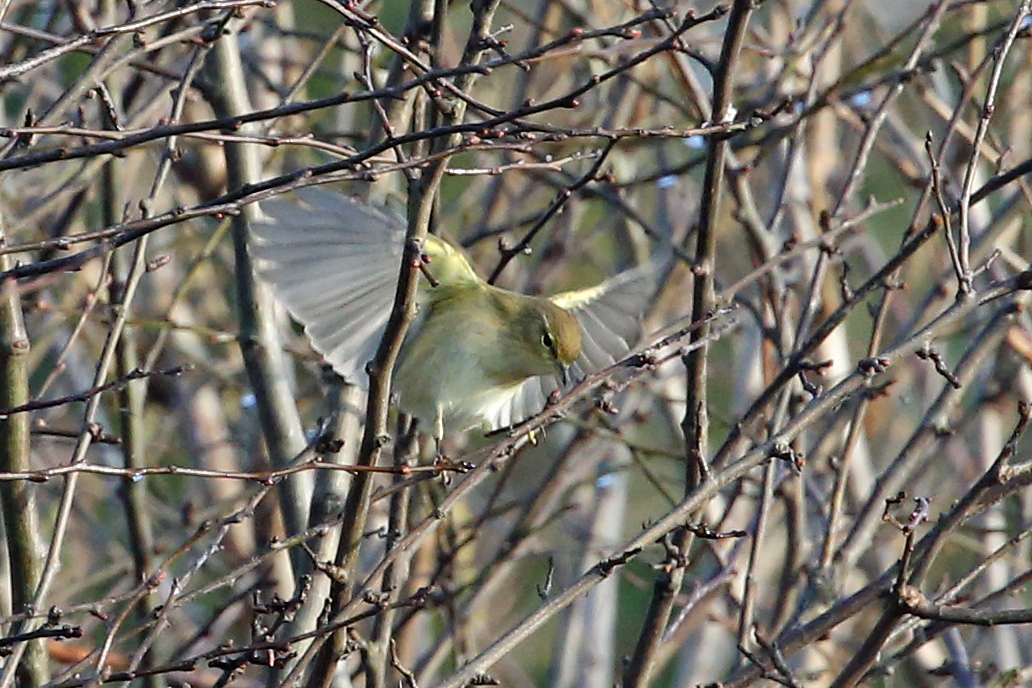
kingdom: Animalia
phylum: Chordata
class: Aves
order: Passeriformes
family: Phylloscopidae
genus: Phylloscopus
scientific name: Phylloscopus collybita
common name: Common chiffchaff
